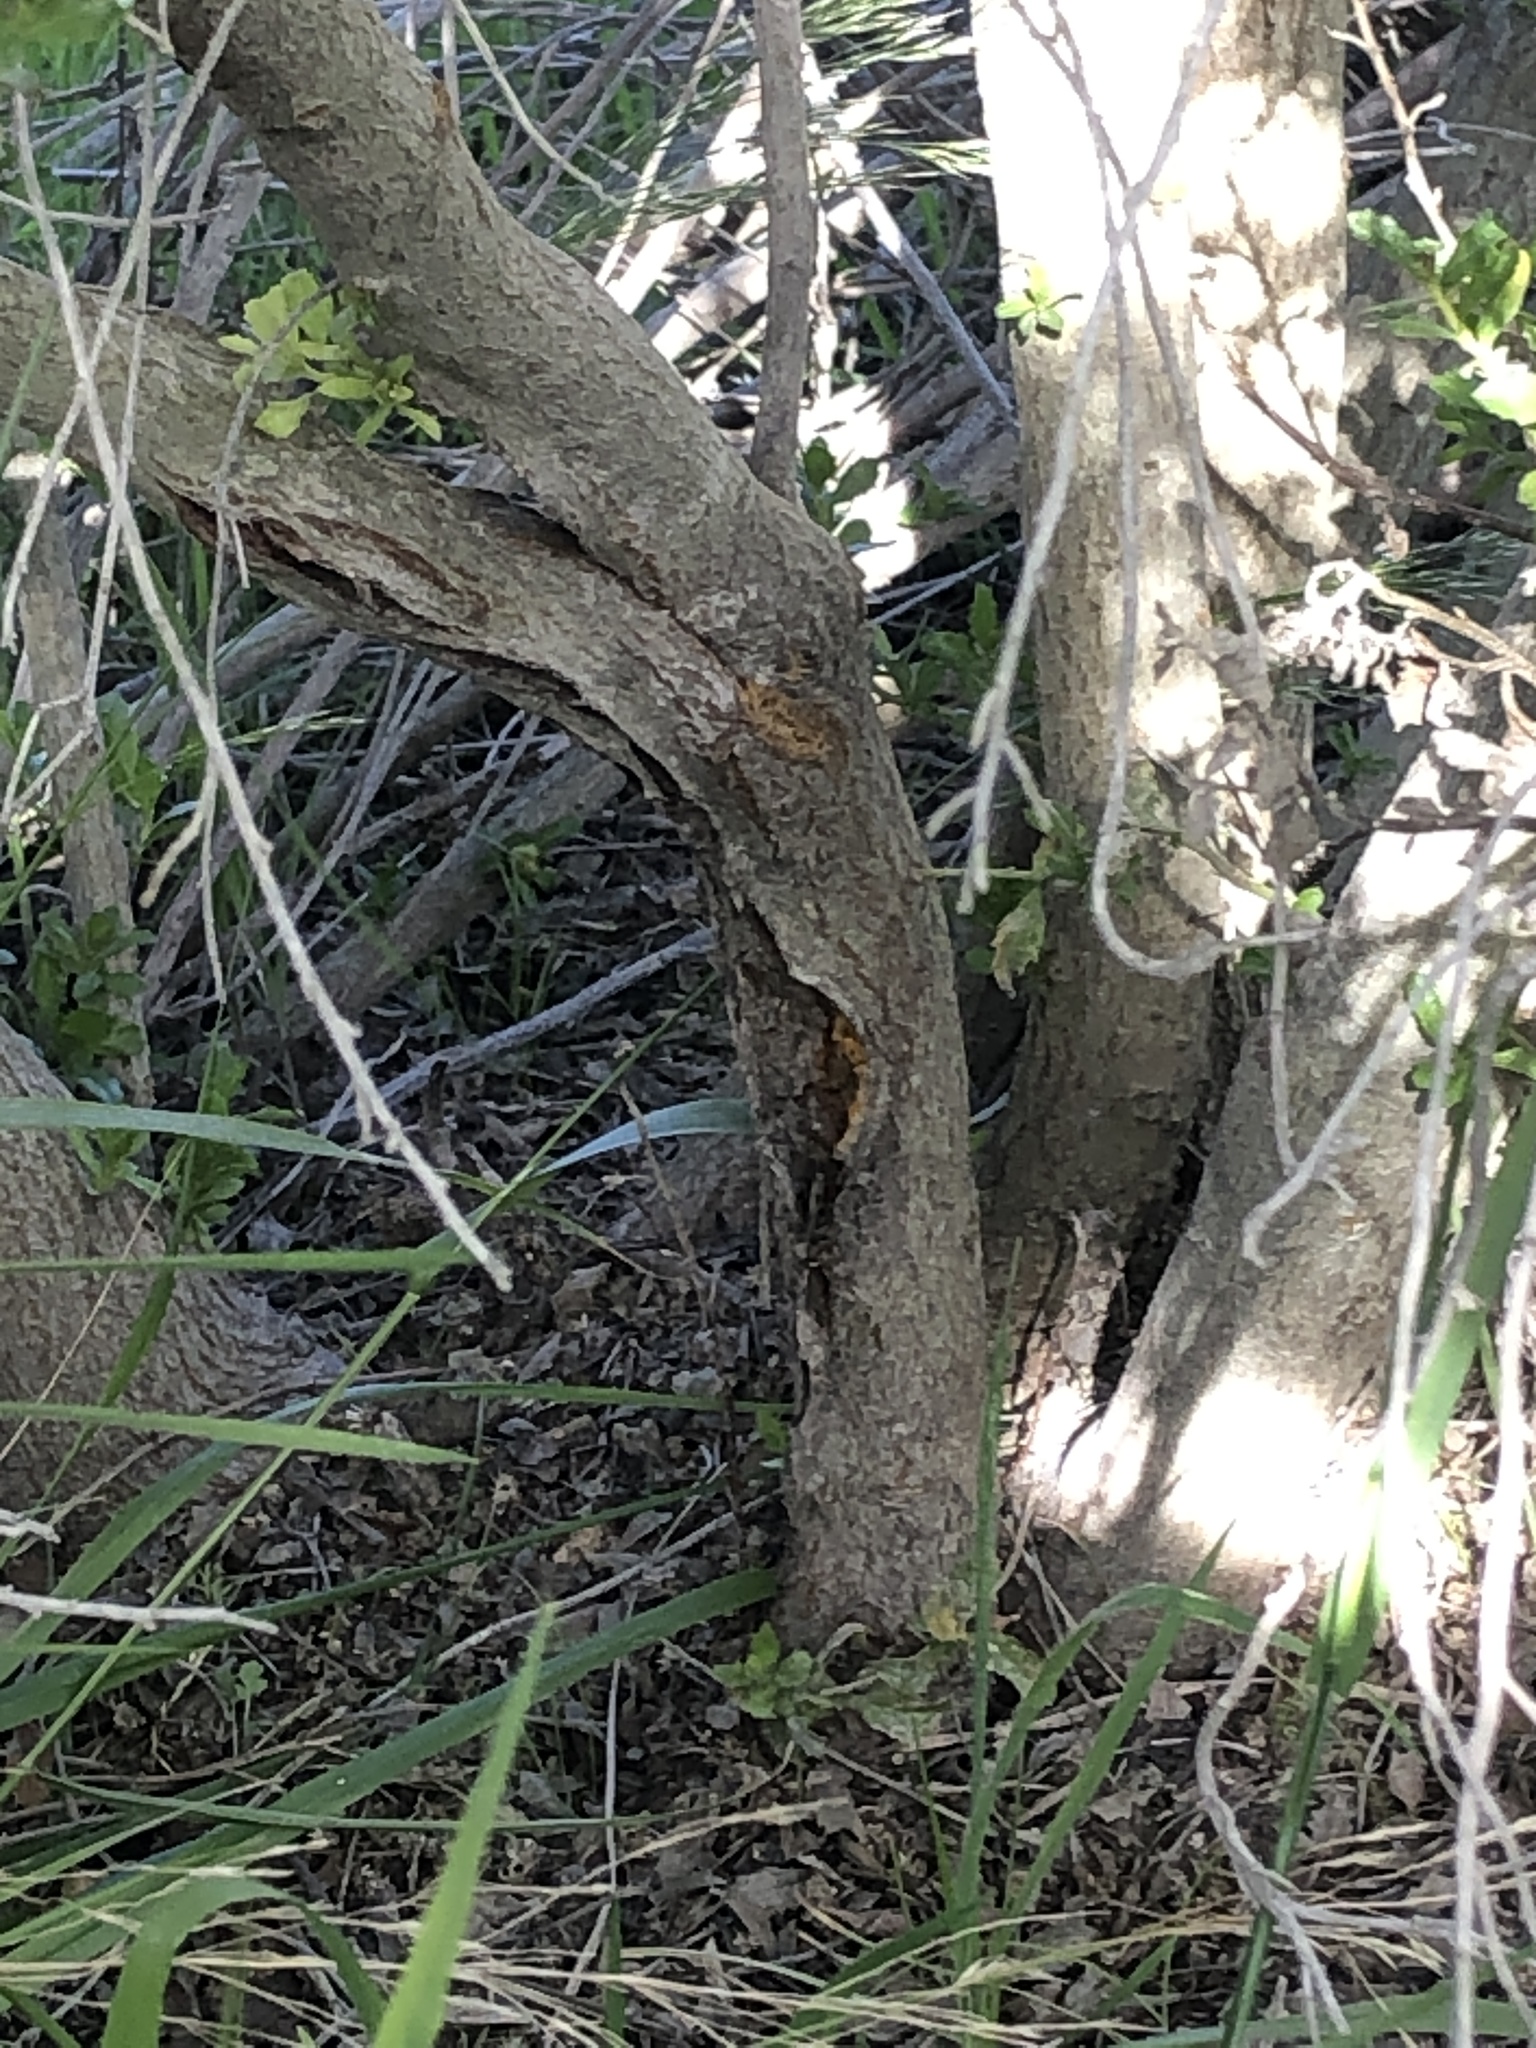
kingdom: Fungi
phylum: Basidiomycota
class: Pucciniomycetes
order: Pucciniales
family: Pucciniaceae
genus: Eriosporangium
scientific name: Eriosporangium evadens
